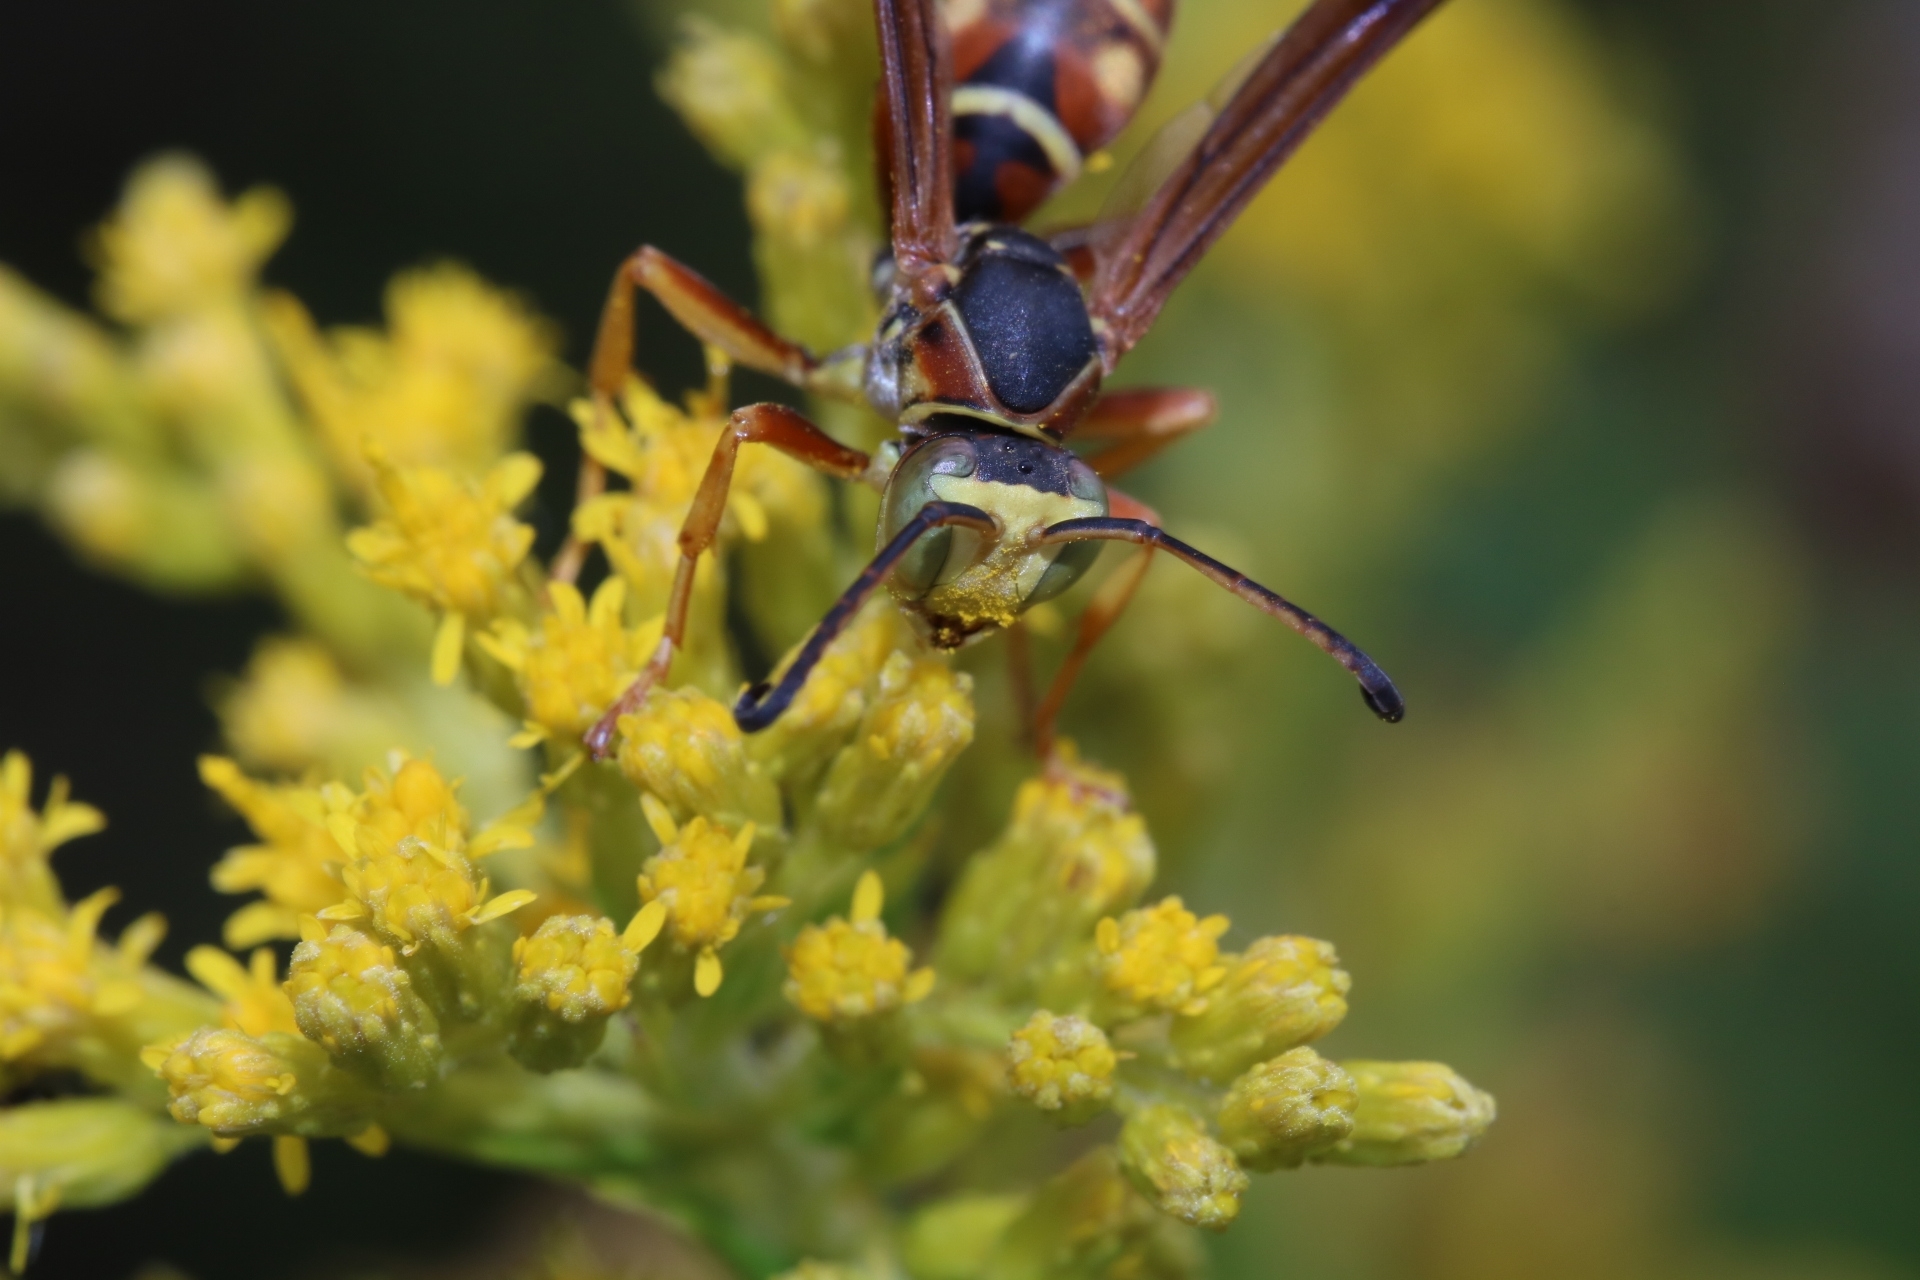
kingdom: Animalia
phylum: Arthropoda
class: Insecta
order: Hymenoptera
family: Eumenidae
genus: Polistes
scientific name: Polistes fuscatus
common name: Dark paper wasp
